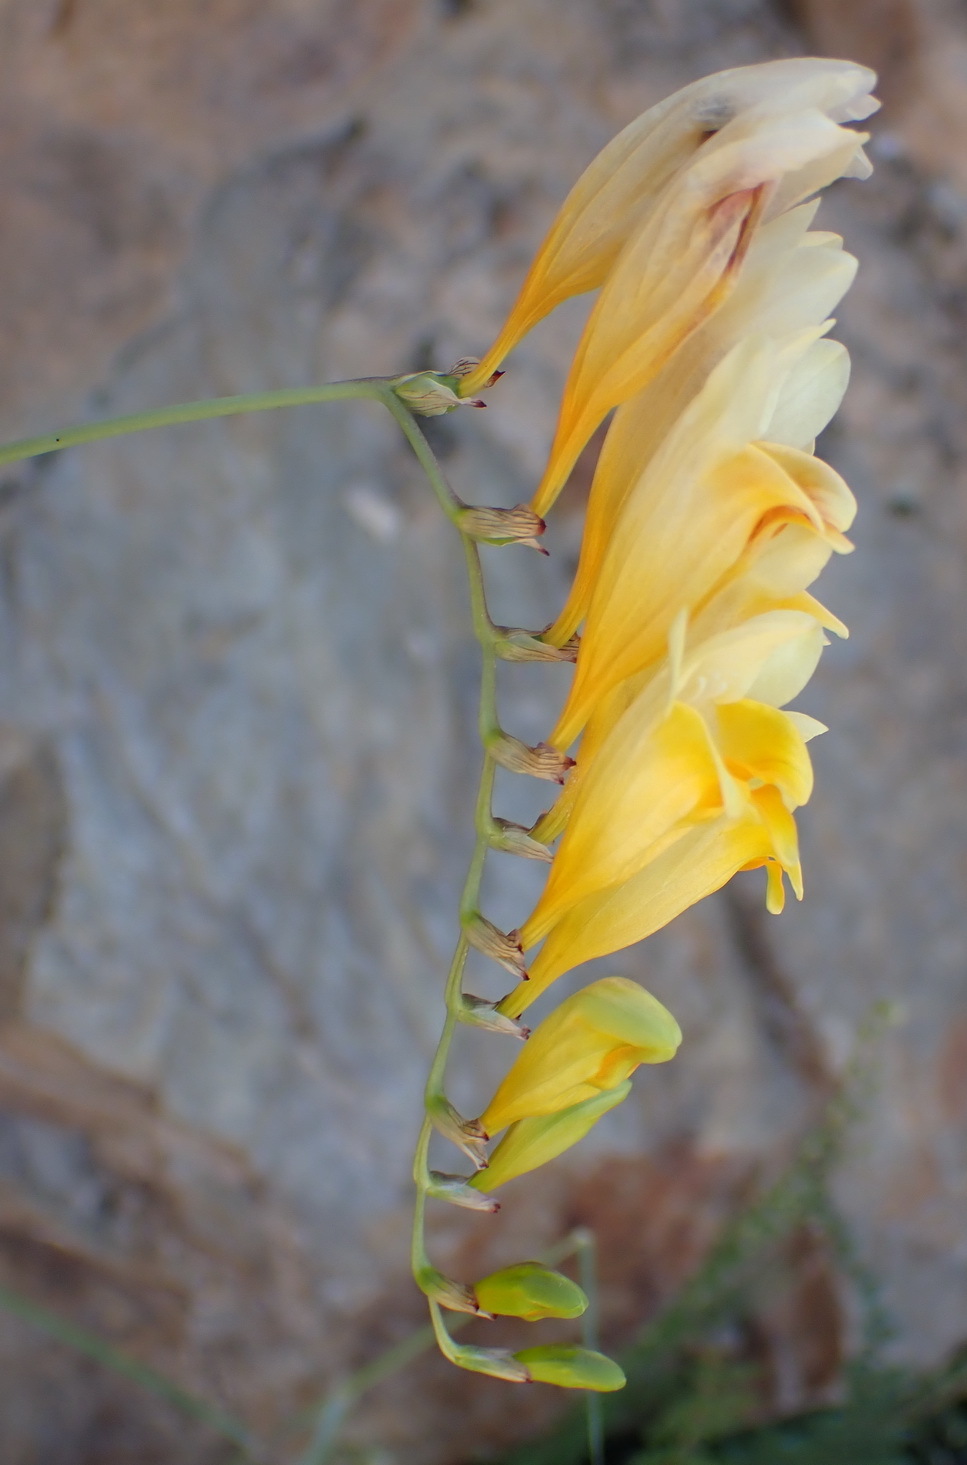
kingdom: Plantae
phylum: Tracheophyta
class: Liliopsida
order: Asparagales
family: Iridaceae
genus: Freesia
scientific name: Freesia corymbosa
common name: Common freesia
